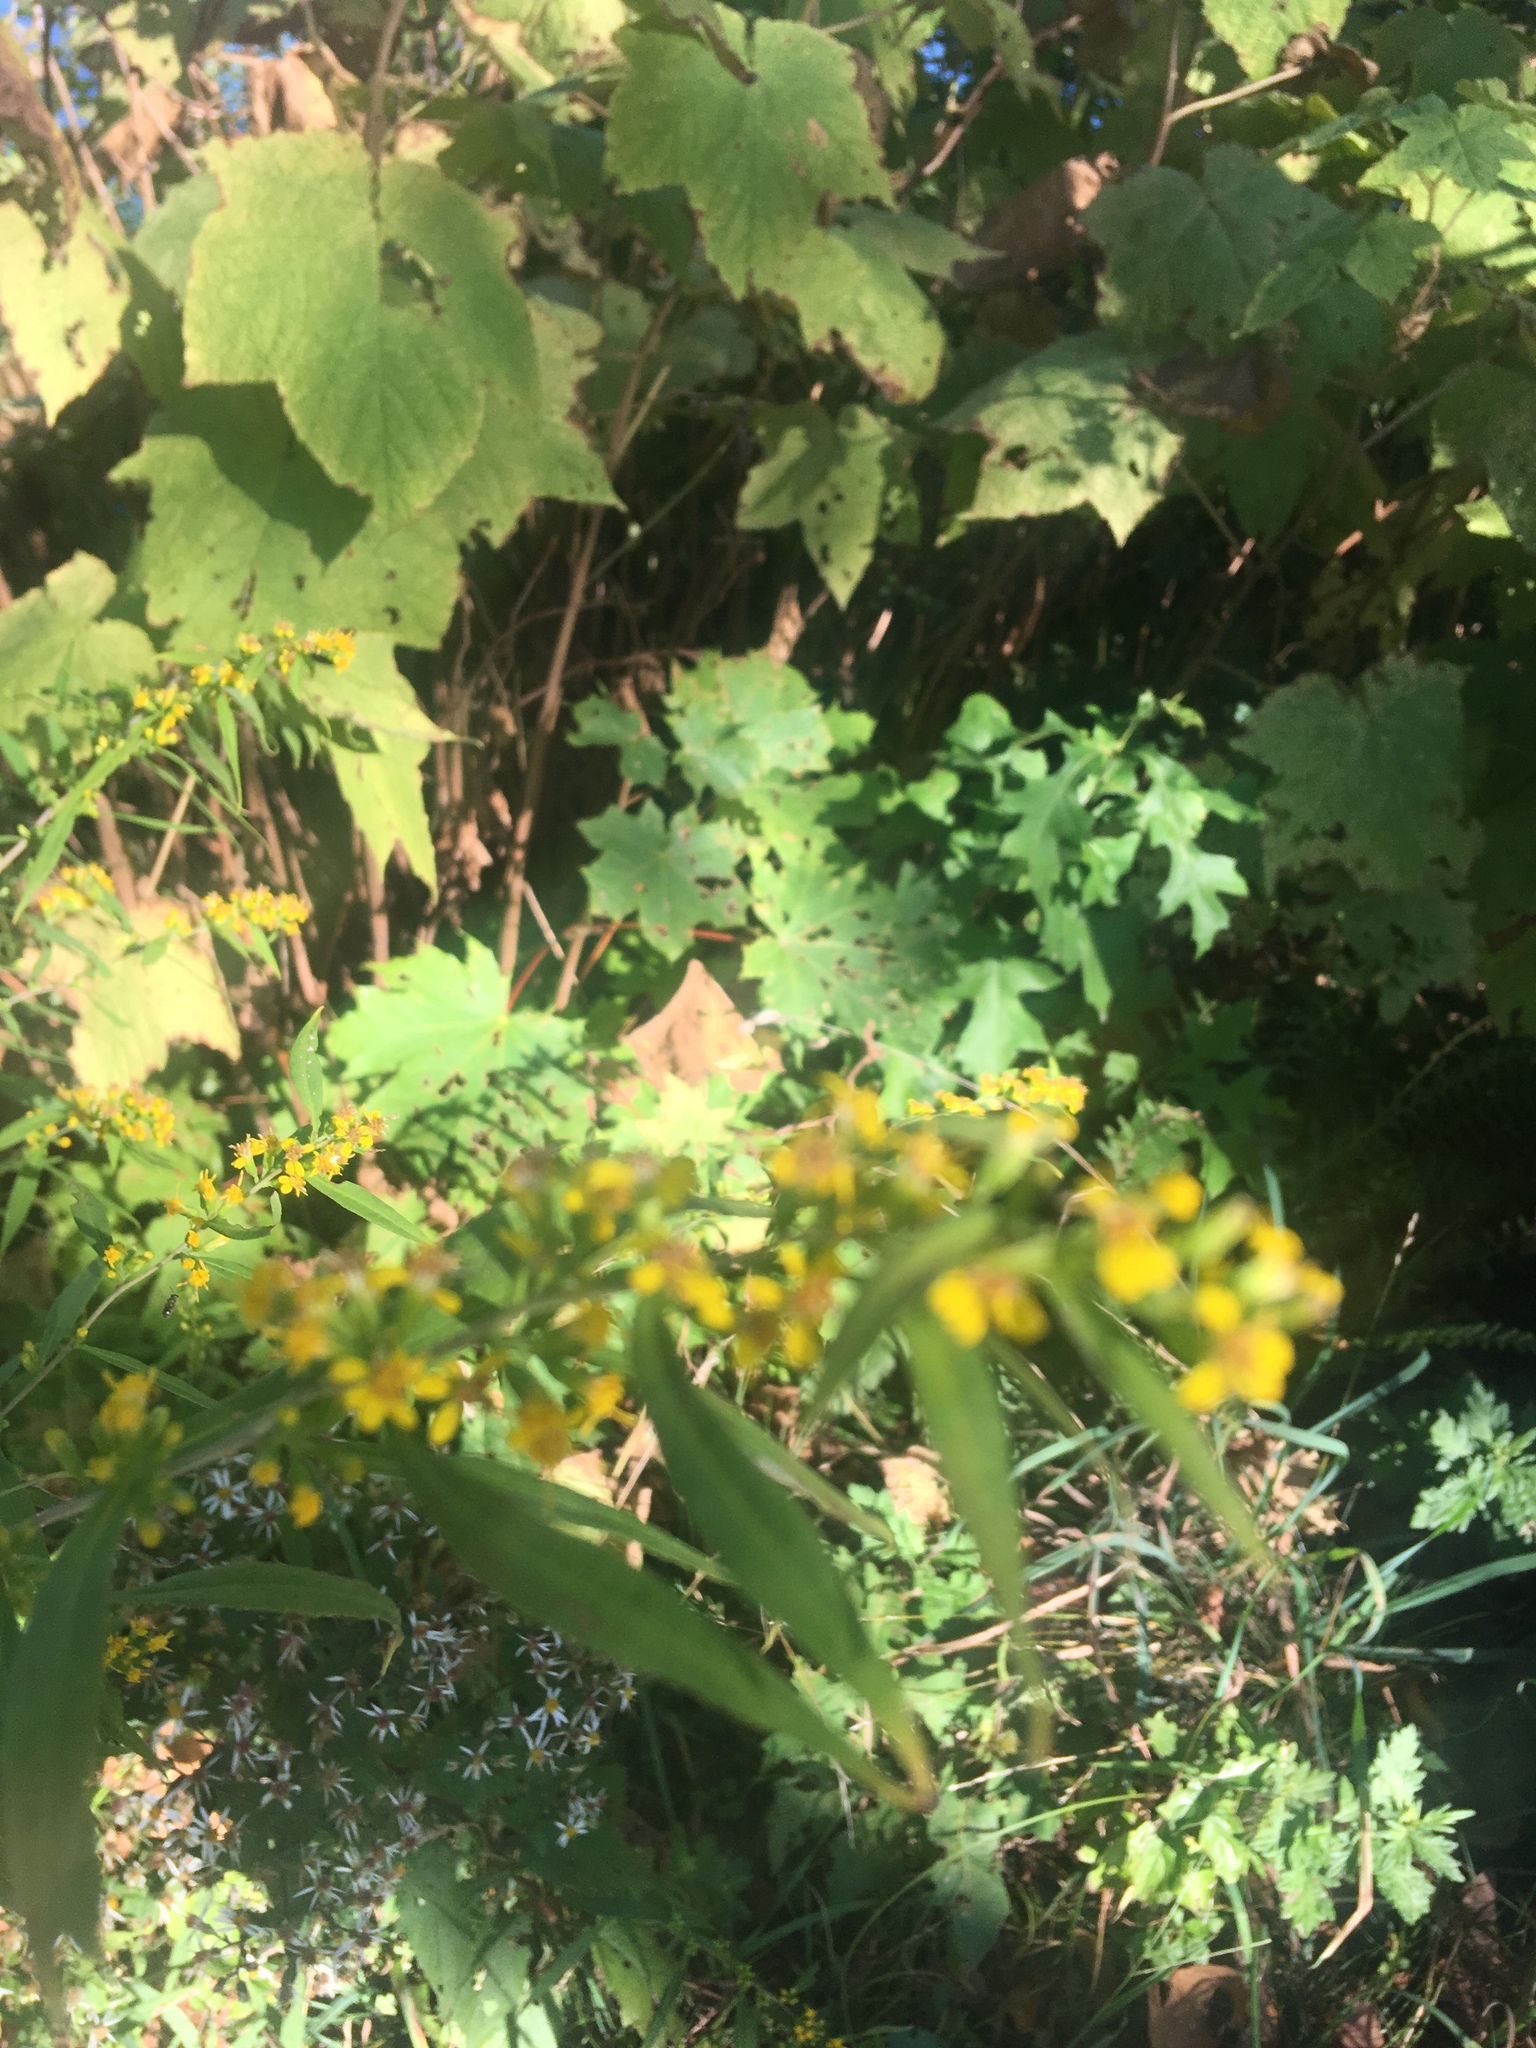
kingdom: Plantae
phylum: Tracheophyta
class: Magnoliopsida
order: Asterales
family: Asteraceae
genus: Solidago
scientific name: Solidago caesia
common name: Woodland goldenrod
